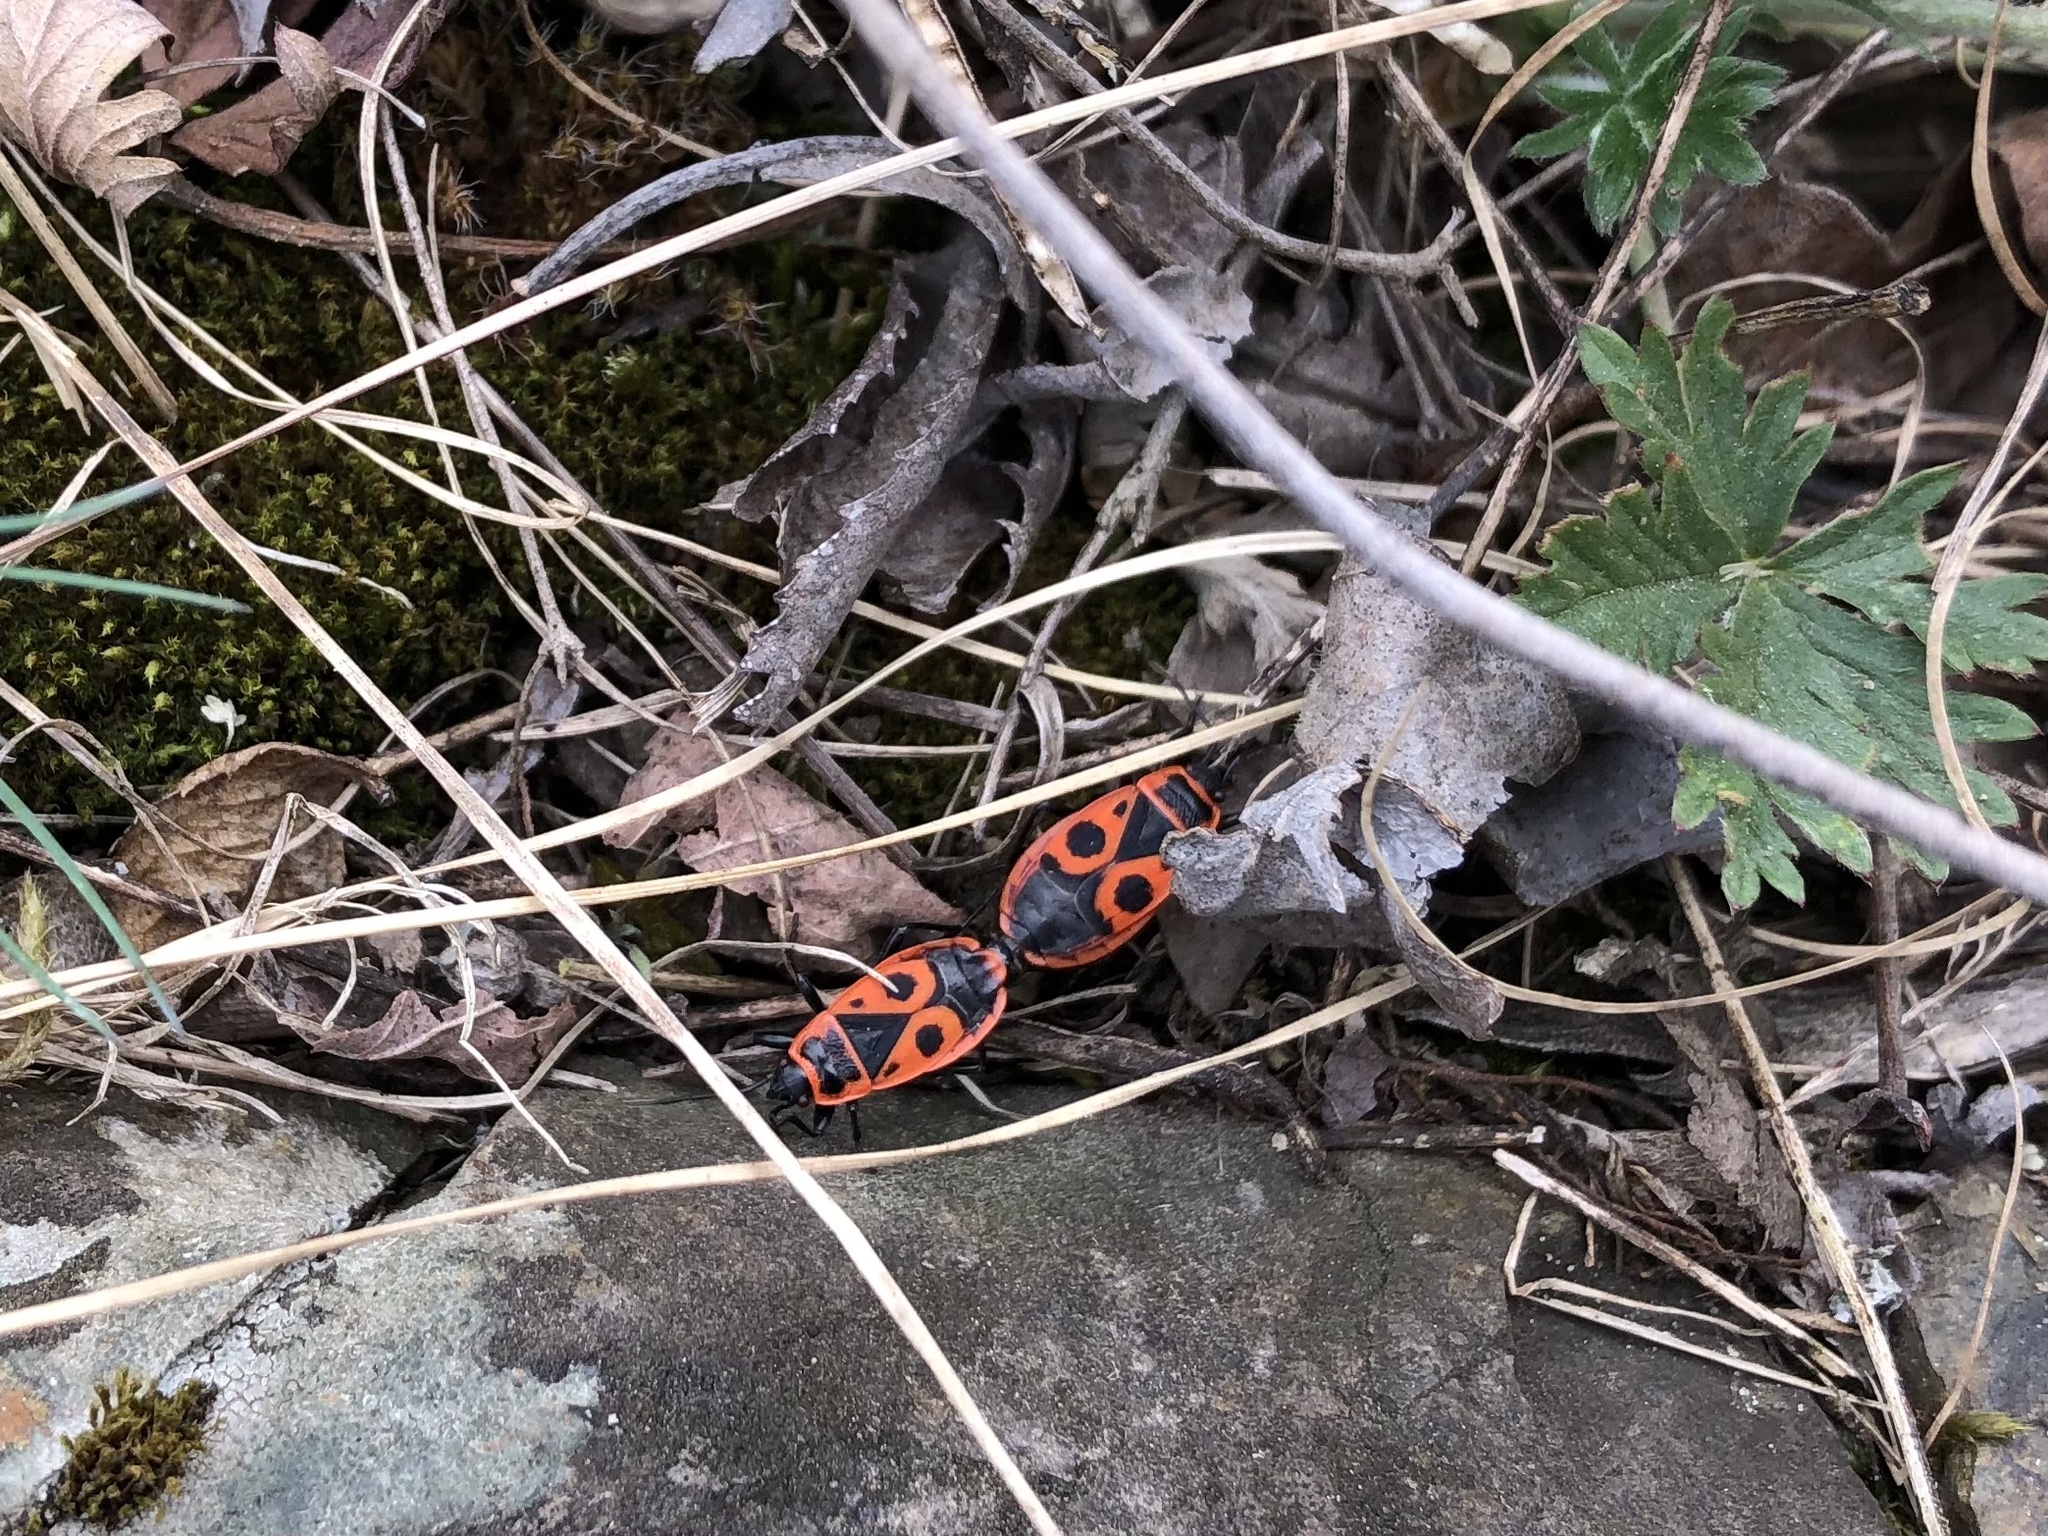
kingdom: Animalia
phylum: Arthropoda
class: Insecta
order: Hemiptera
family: Pyrrhocoridae
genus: Pyrrhocoris
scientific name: Pyrrhocoris apterus
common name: Firebug
